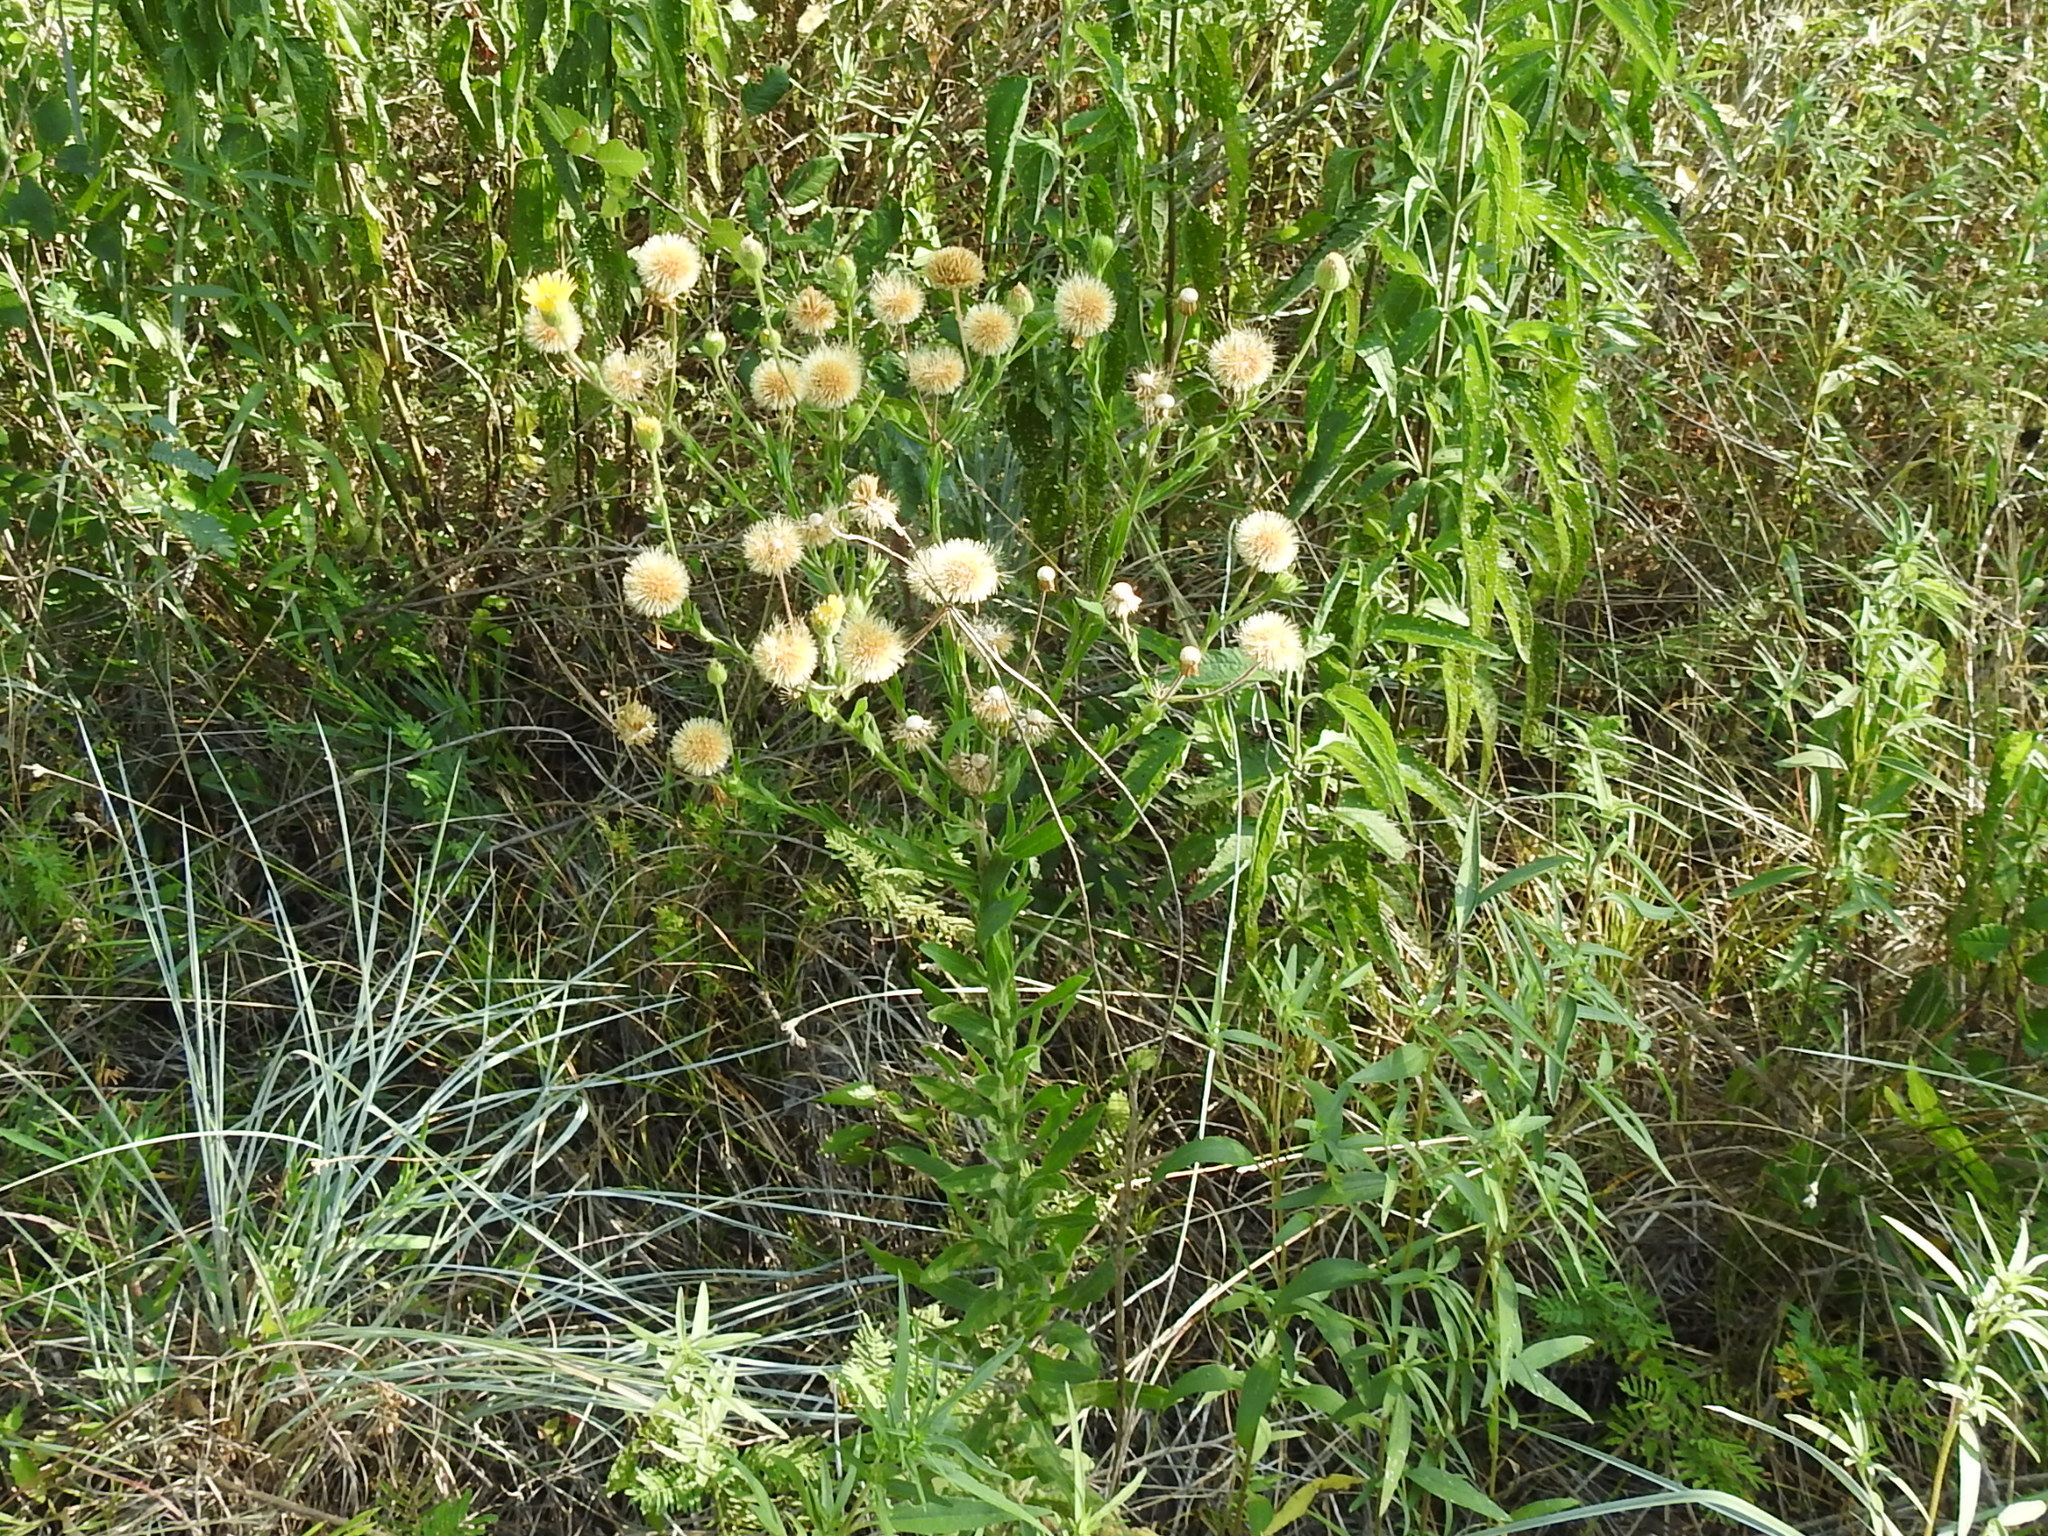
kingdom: Plantae
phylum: Tracheophyta
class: Magnoliopsida
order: Asterales
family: Asteraceae
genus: Bradburia
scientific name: Bradburia pilosa
